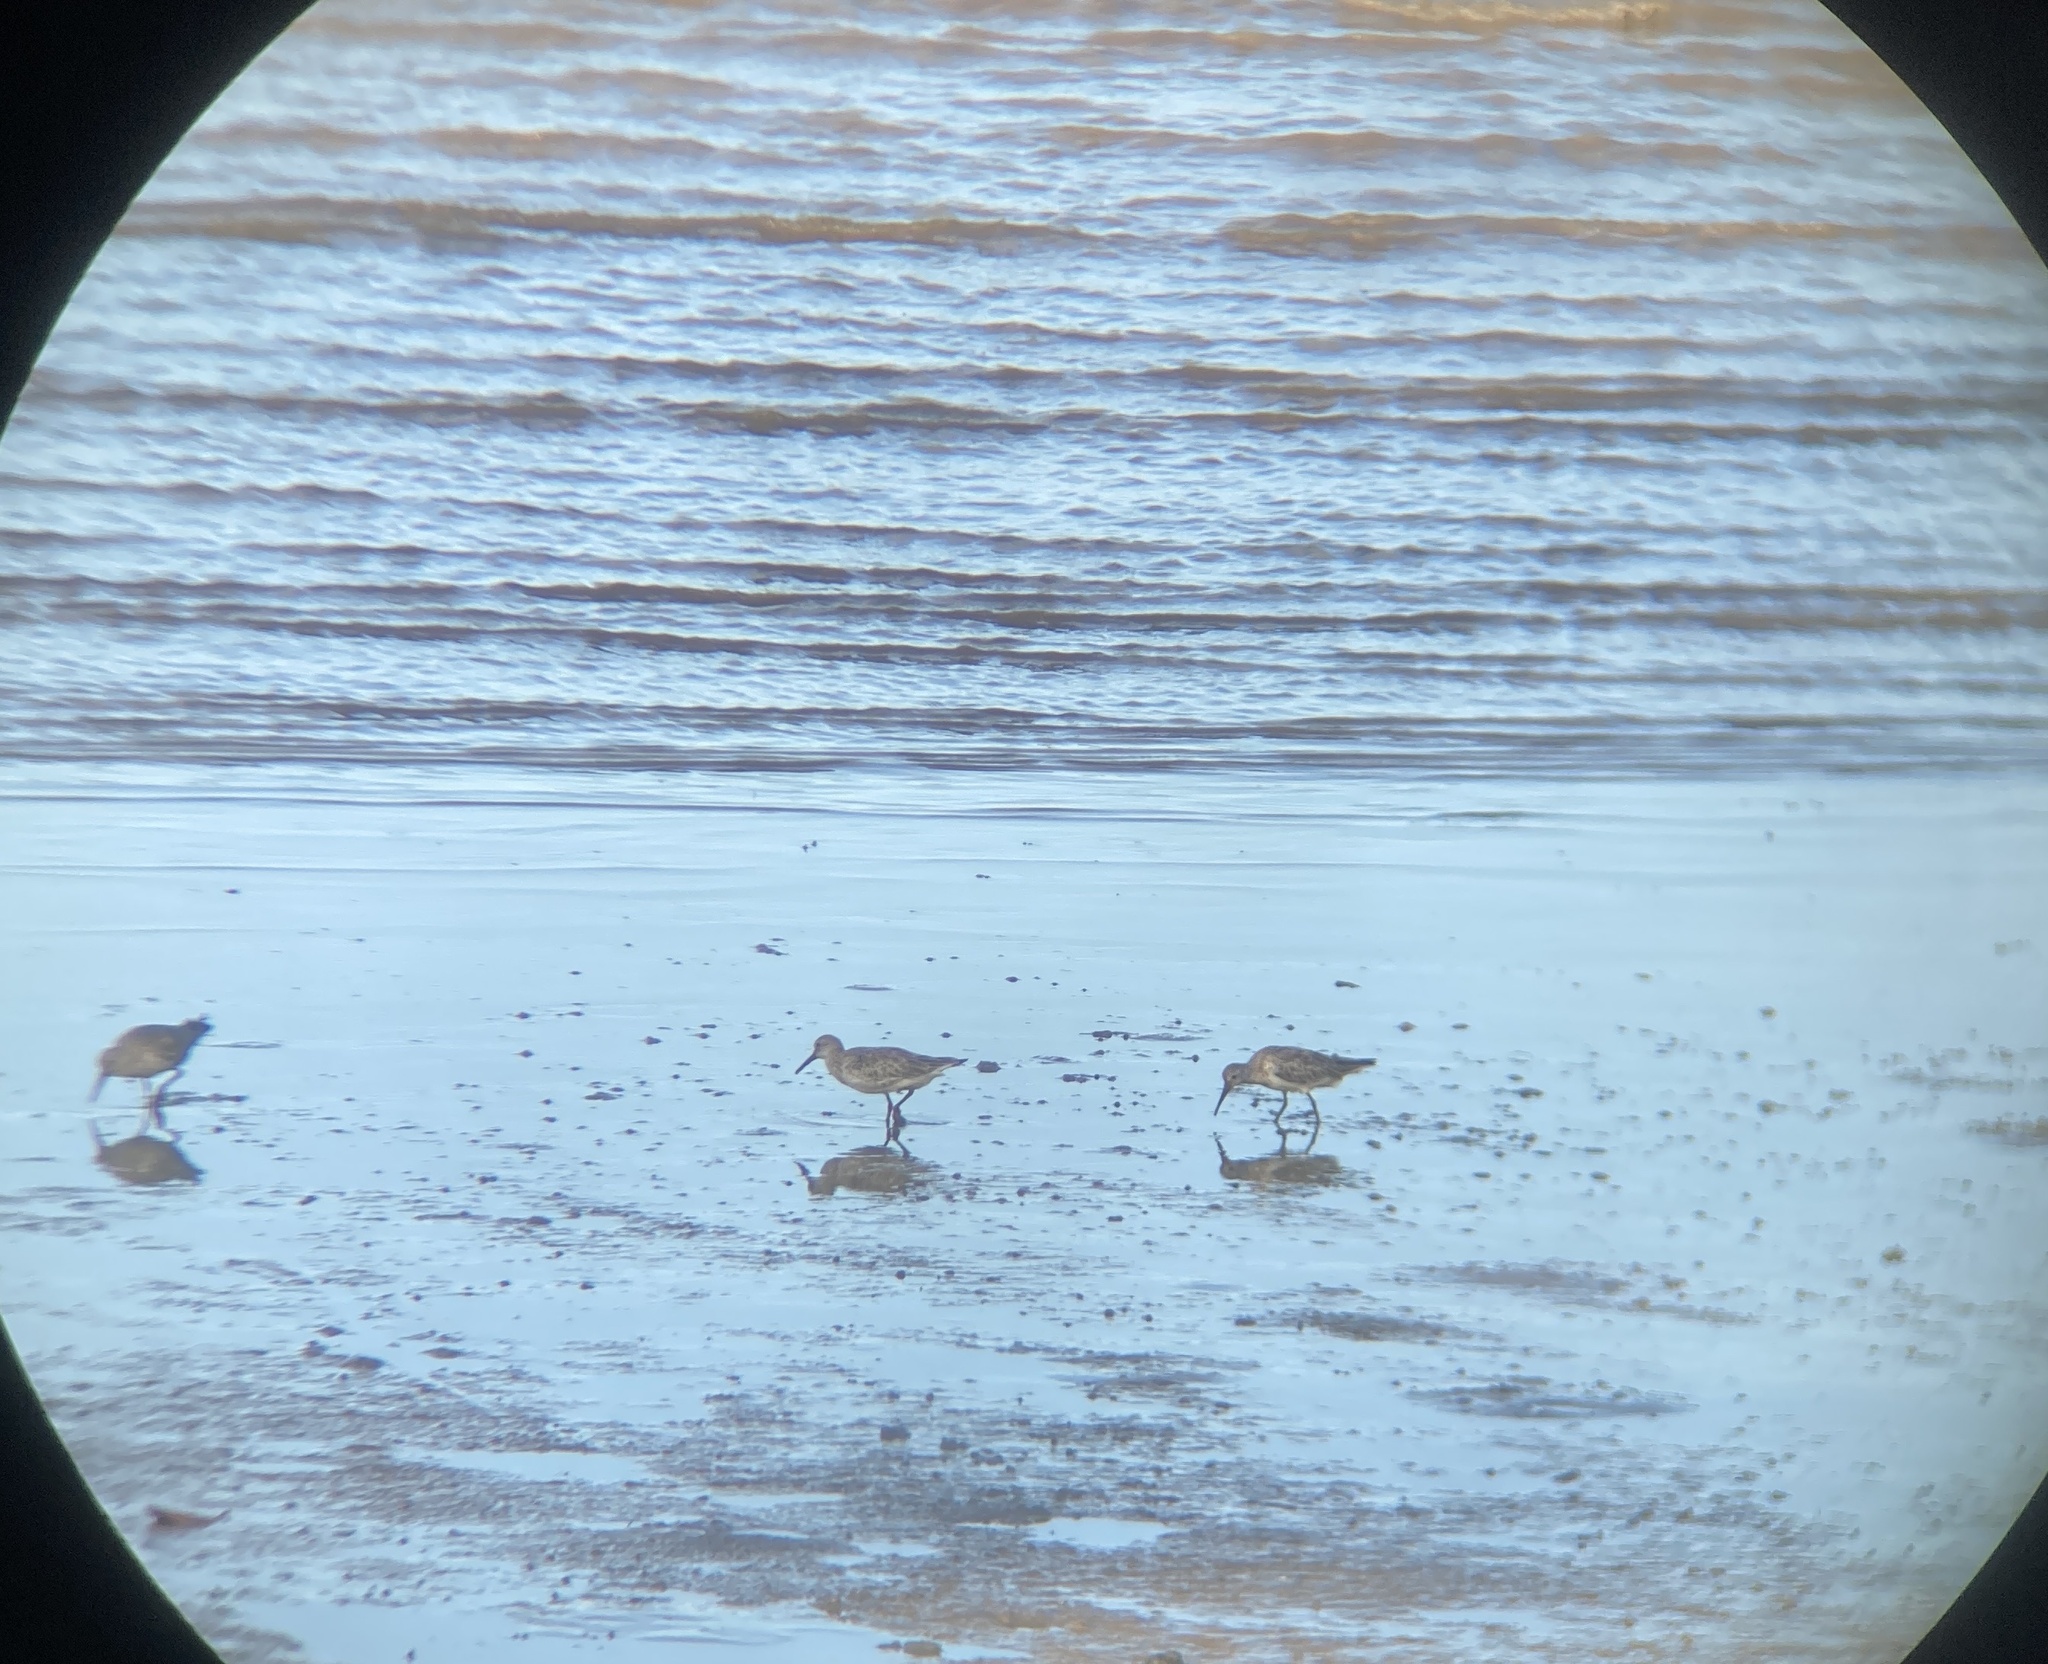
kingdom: Animalia
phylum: Chordata
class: Aves
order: Charadriiformes
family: Scolopacidae
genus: Calidris
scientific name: Calidris tenuirostris
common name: Great knot
